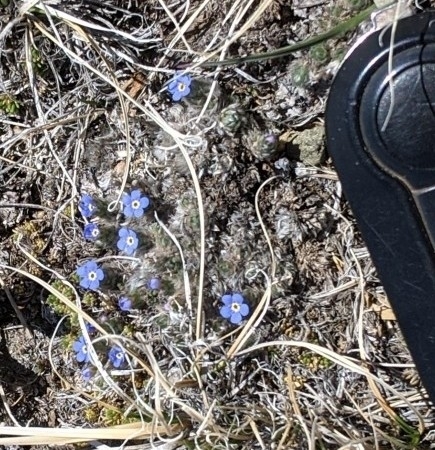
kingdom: Plantae
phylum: Tracheophyta
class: Magnoliopsida
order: Boraginales
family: Boraginaceae
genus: Eritrichium
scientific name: Eritrichium argenteum
